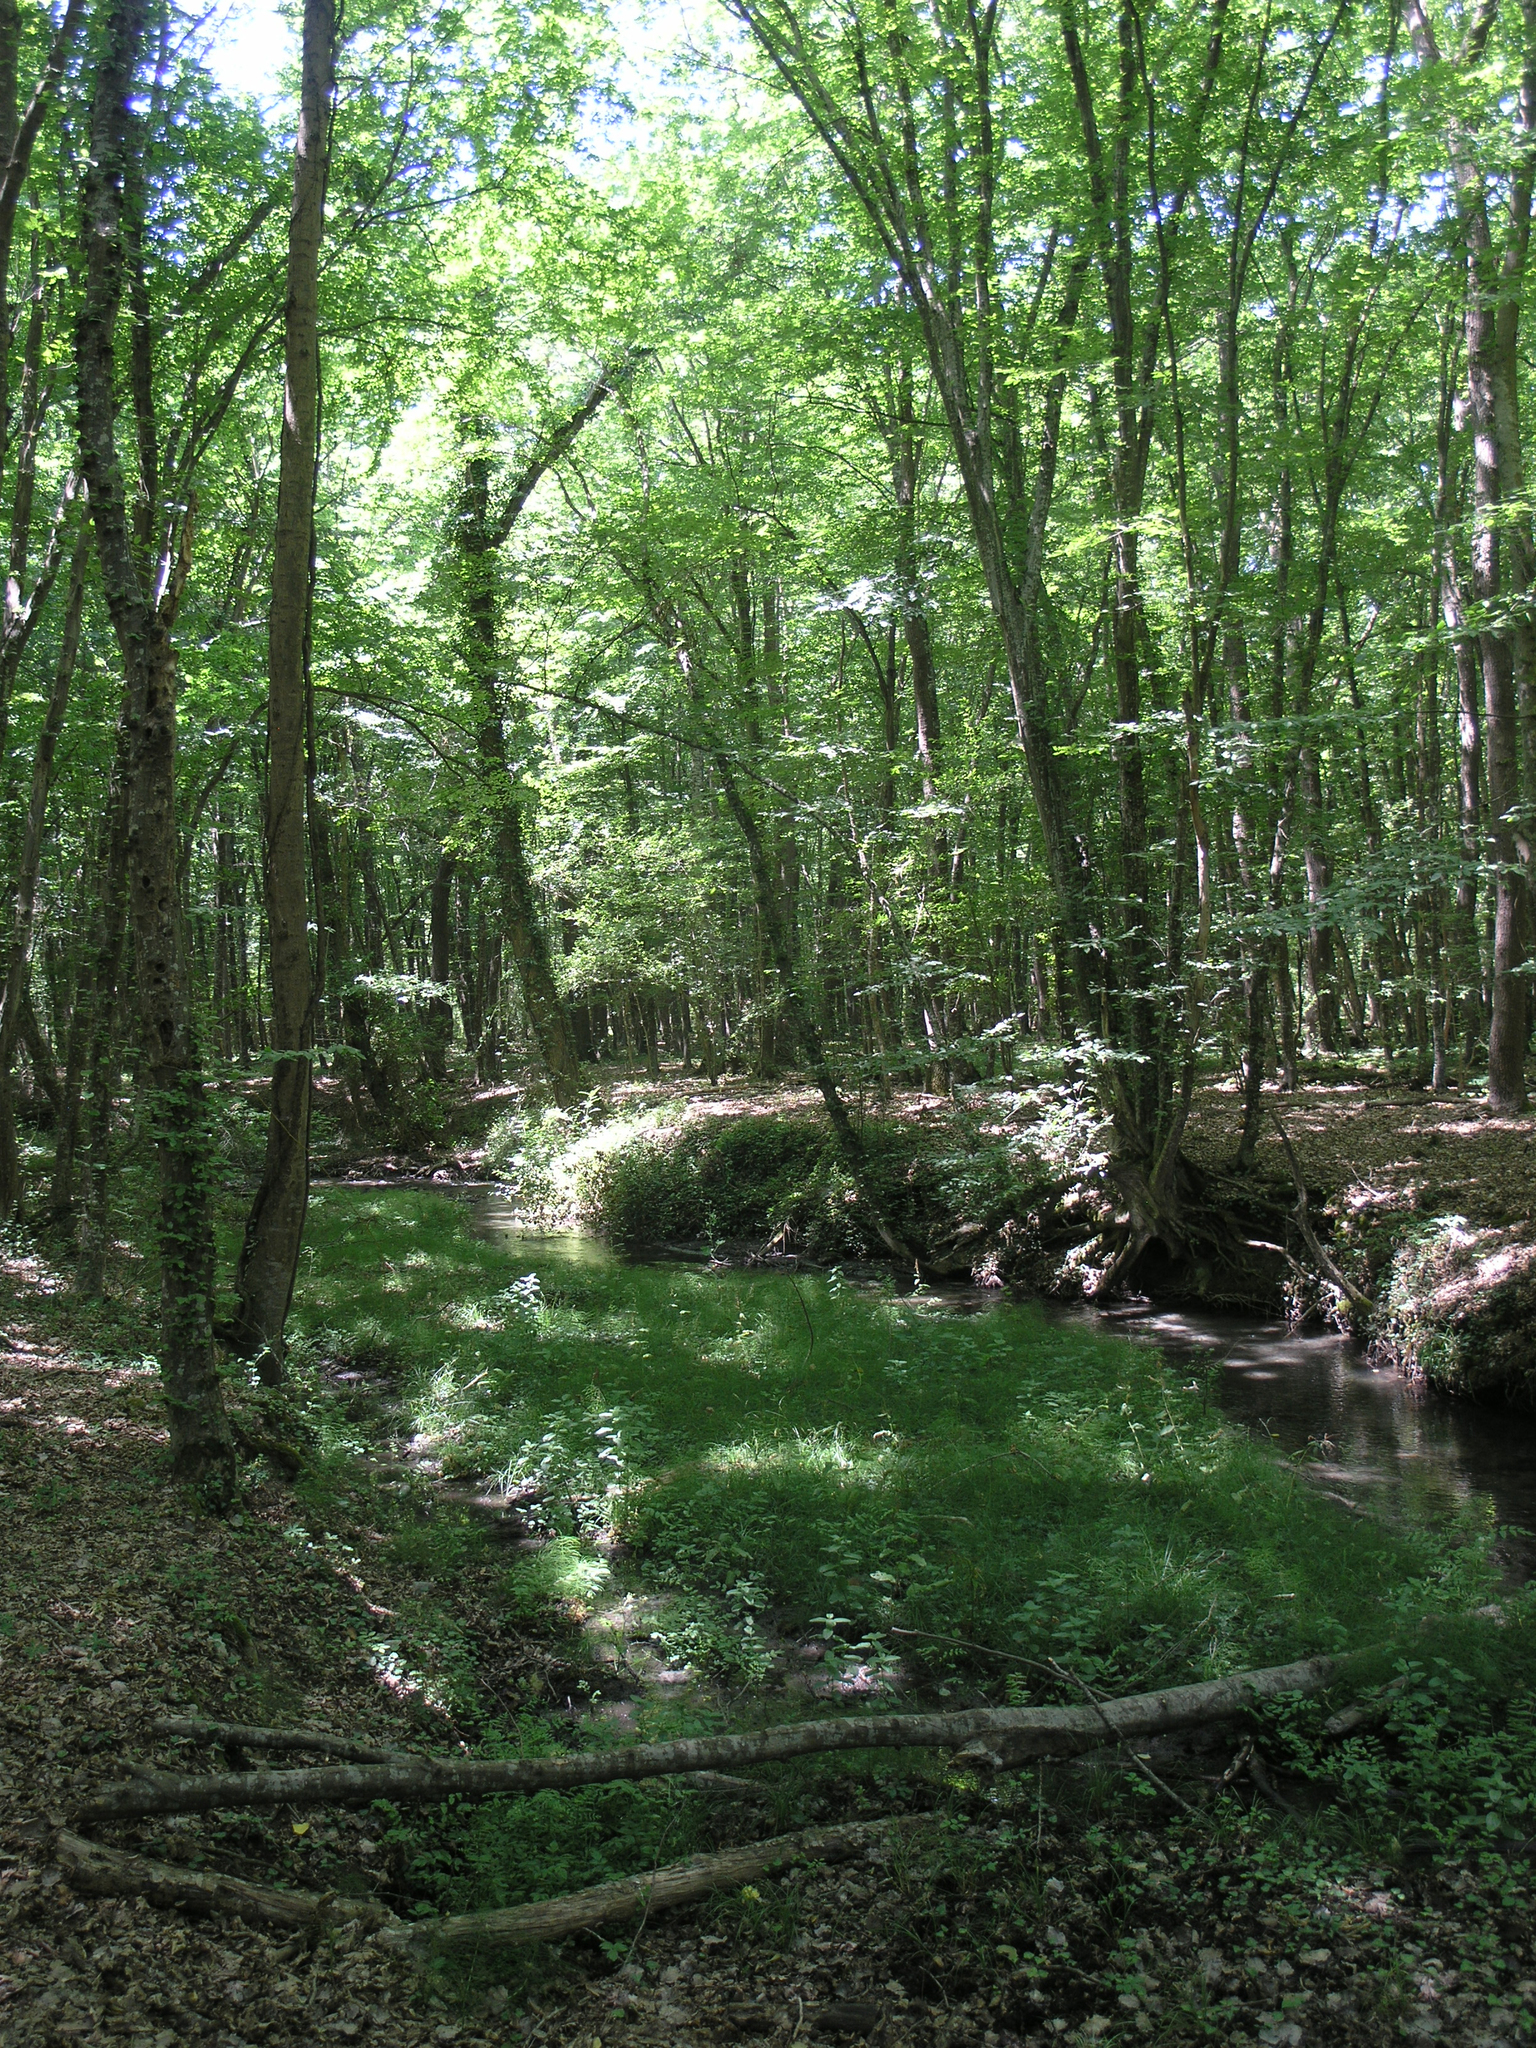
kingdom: Plantae
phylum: Tracheophyta
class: Magnoliopsida
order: Fagales
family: Betulaceae
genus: Carpinus
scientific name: Carpinus betulus
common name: Hornbeam
